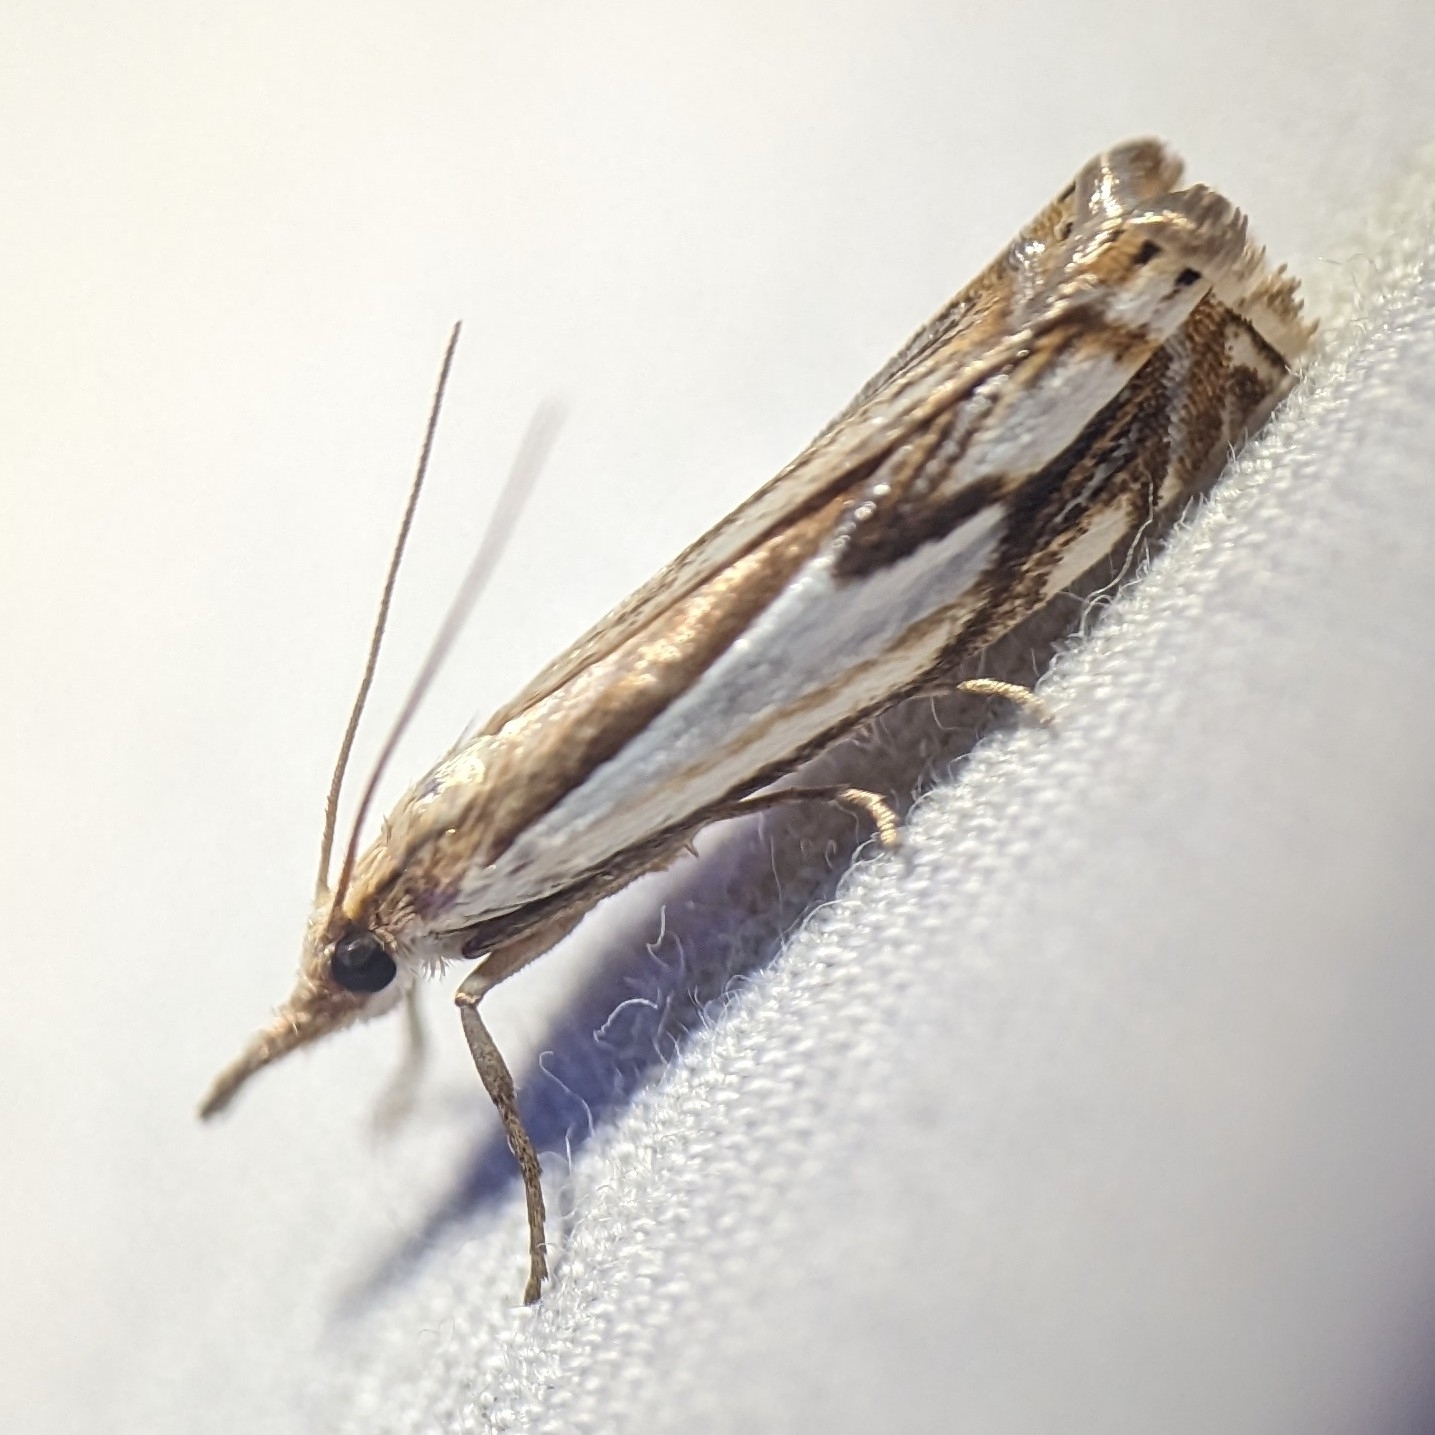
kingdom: Animalia
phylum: Arthropoda
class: Insecta
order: Lepidoptera
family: Crambidae
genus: Crambus
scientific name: Crambus agitatellus
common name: Double-banded grass-veneer
